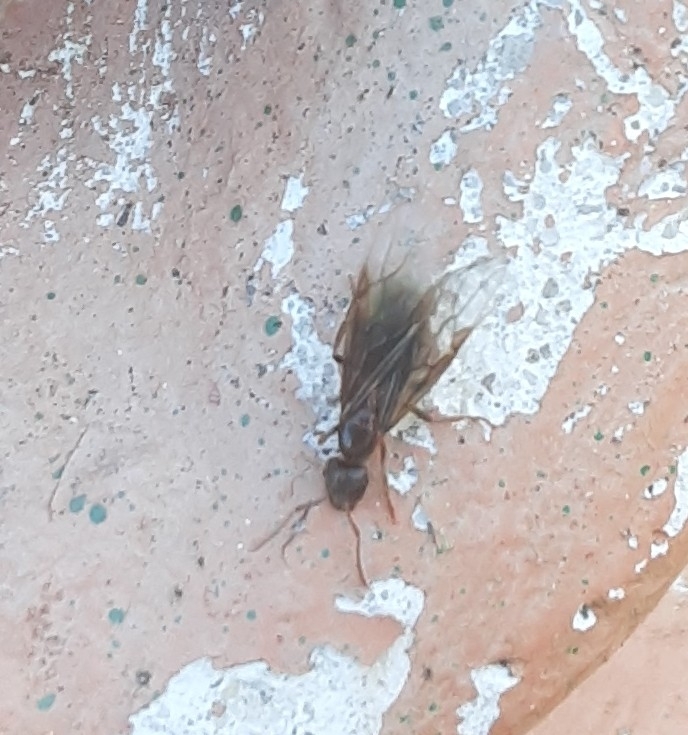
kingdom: Animalia
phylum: Arthropoda
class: Insecta
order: Hymenoptera
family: Formicidae
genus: Lasius
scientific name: Lasius aphidicola
